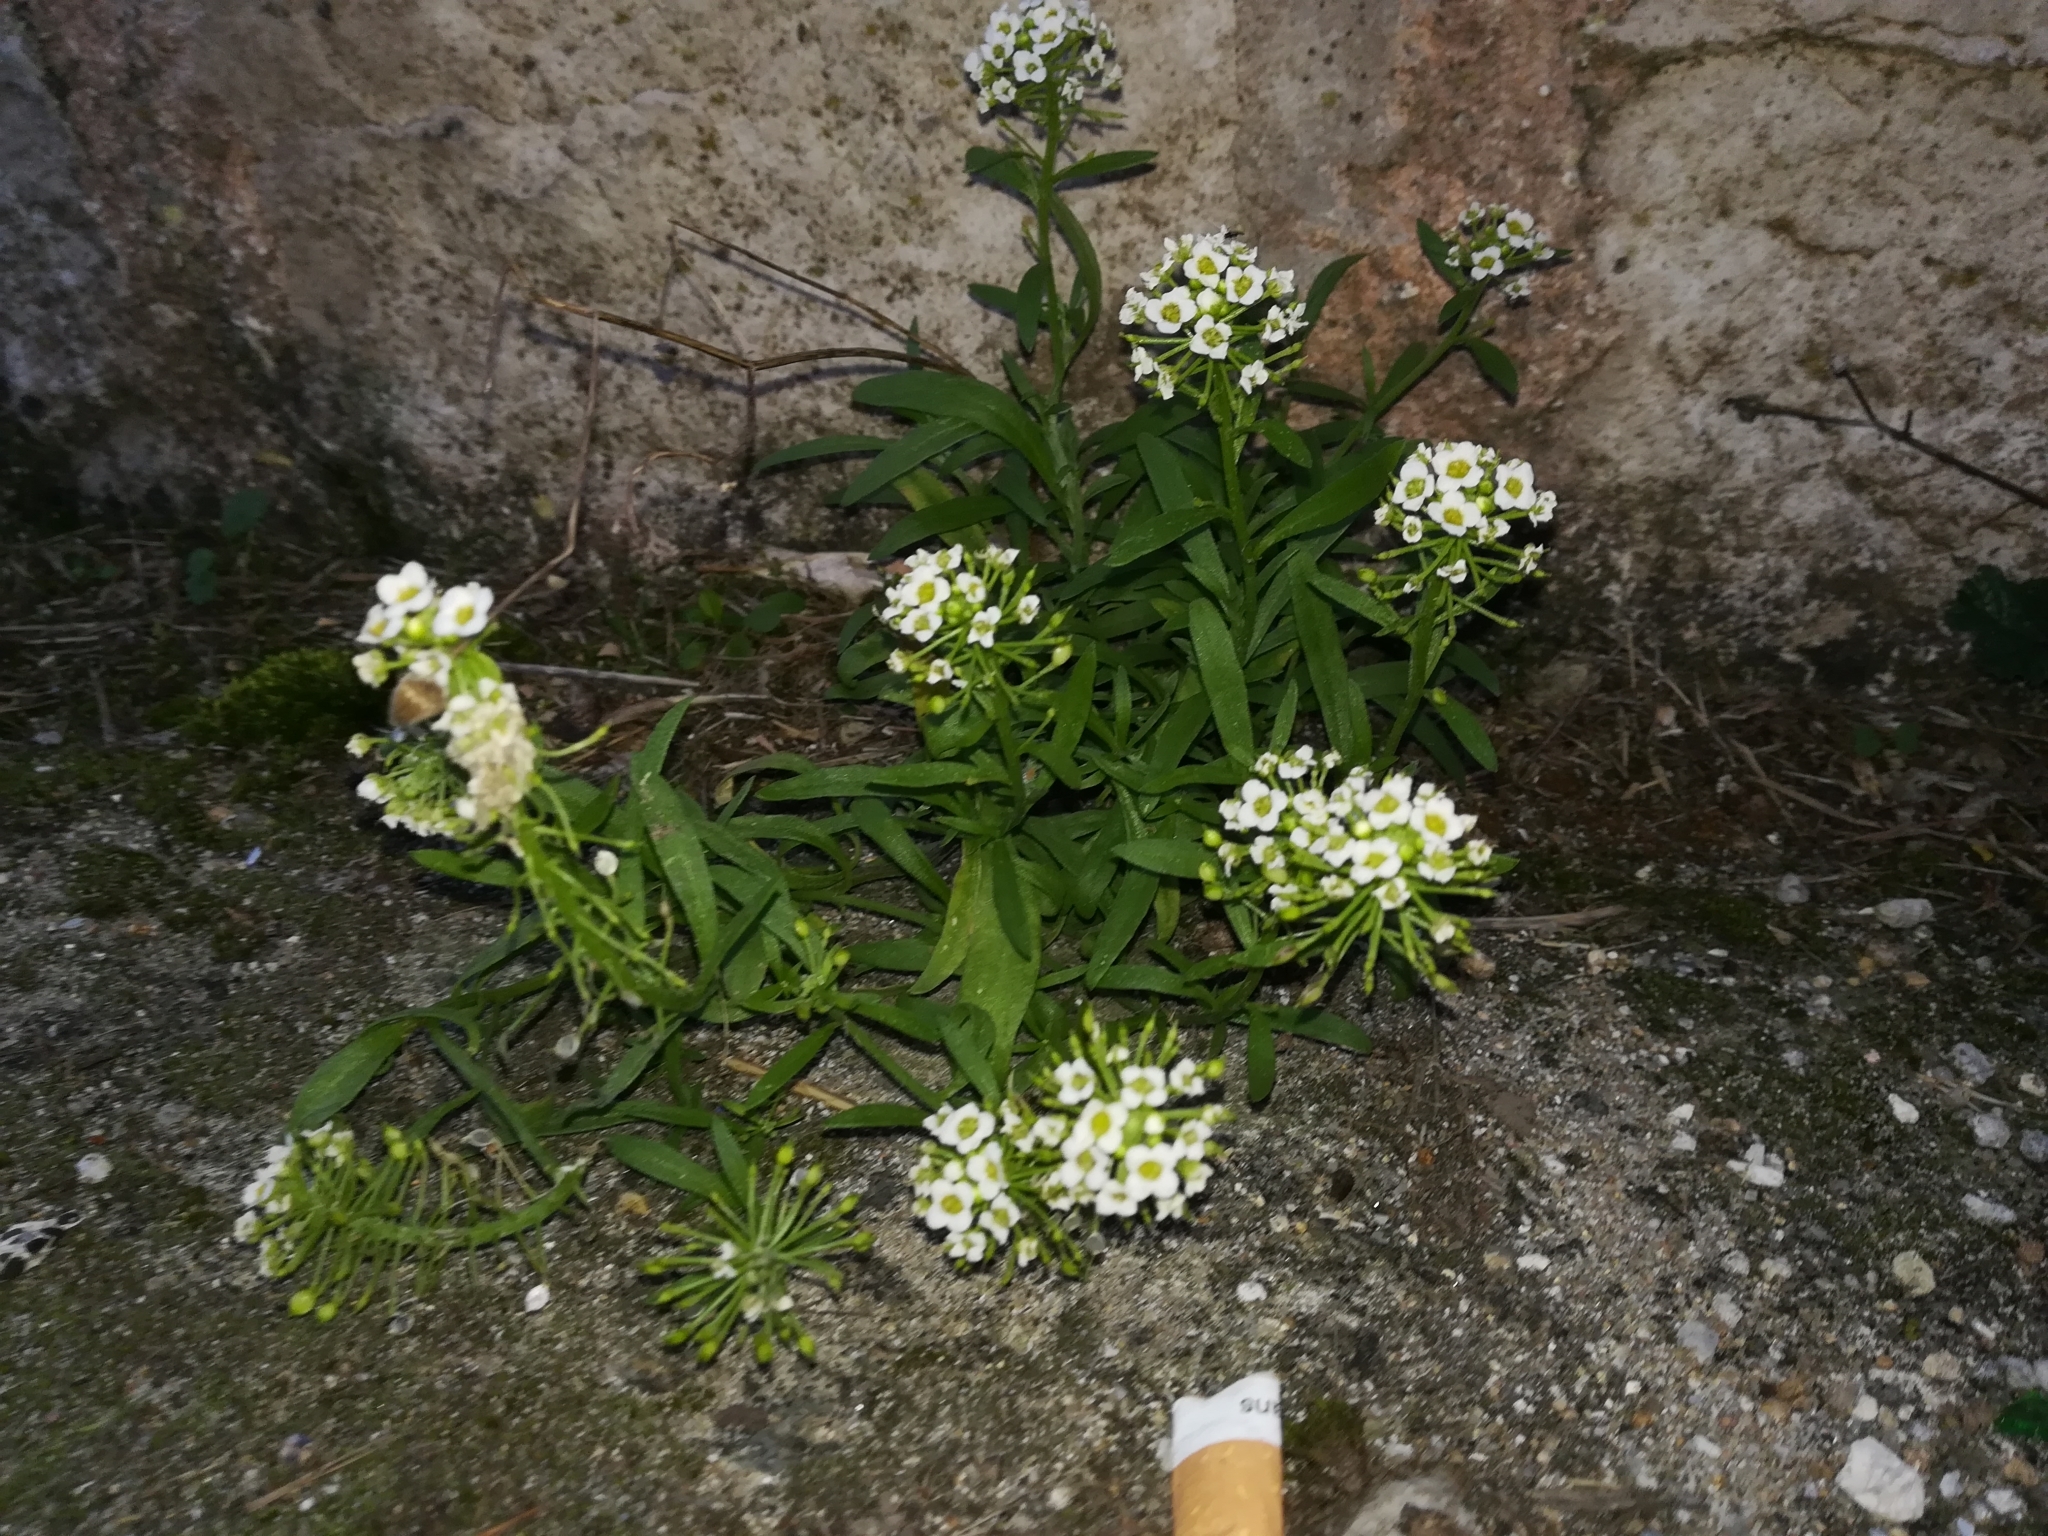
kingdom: Plantae
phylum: Tracheophyta
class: Magnoliopsida
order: Brassicales
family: Brassicaceae
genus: Lobularia
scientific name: Lobularia maritima
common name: Sweet alison
